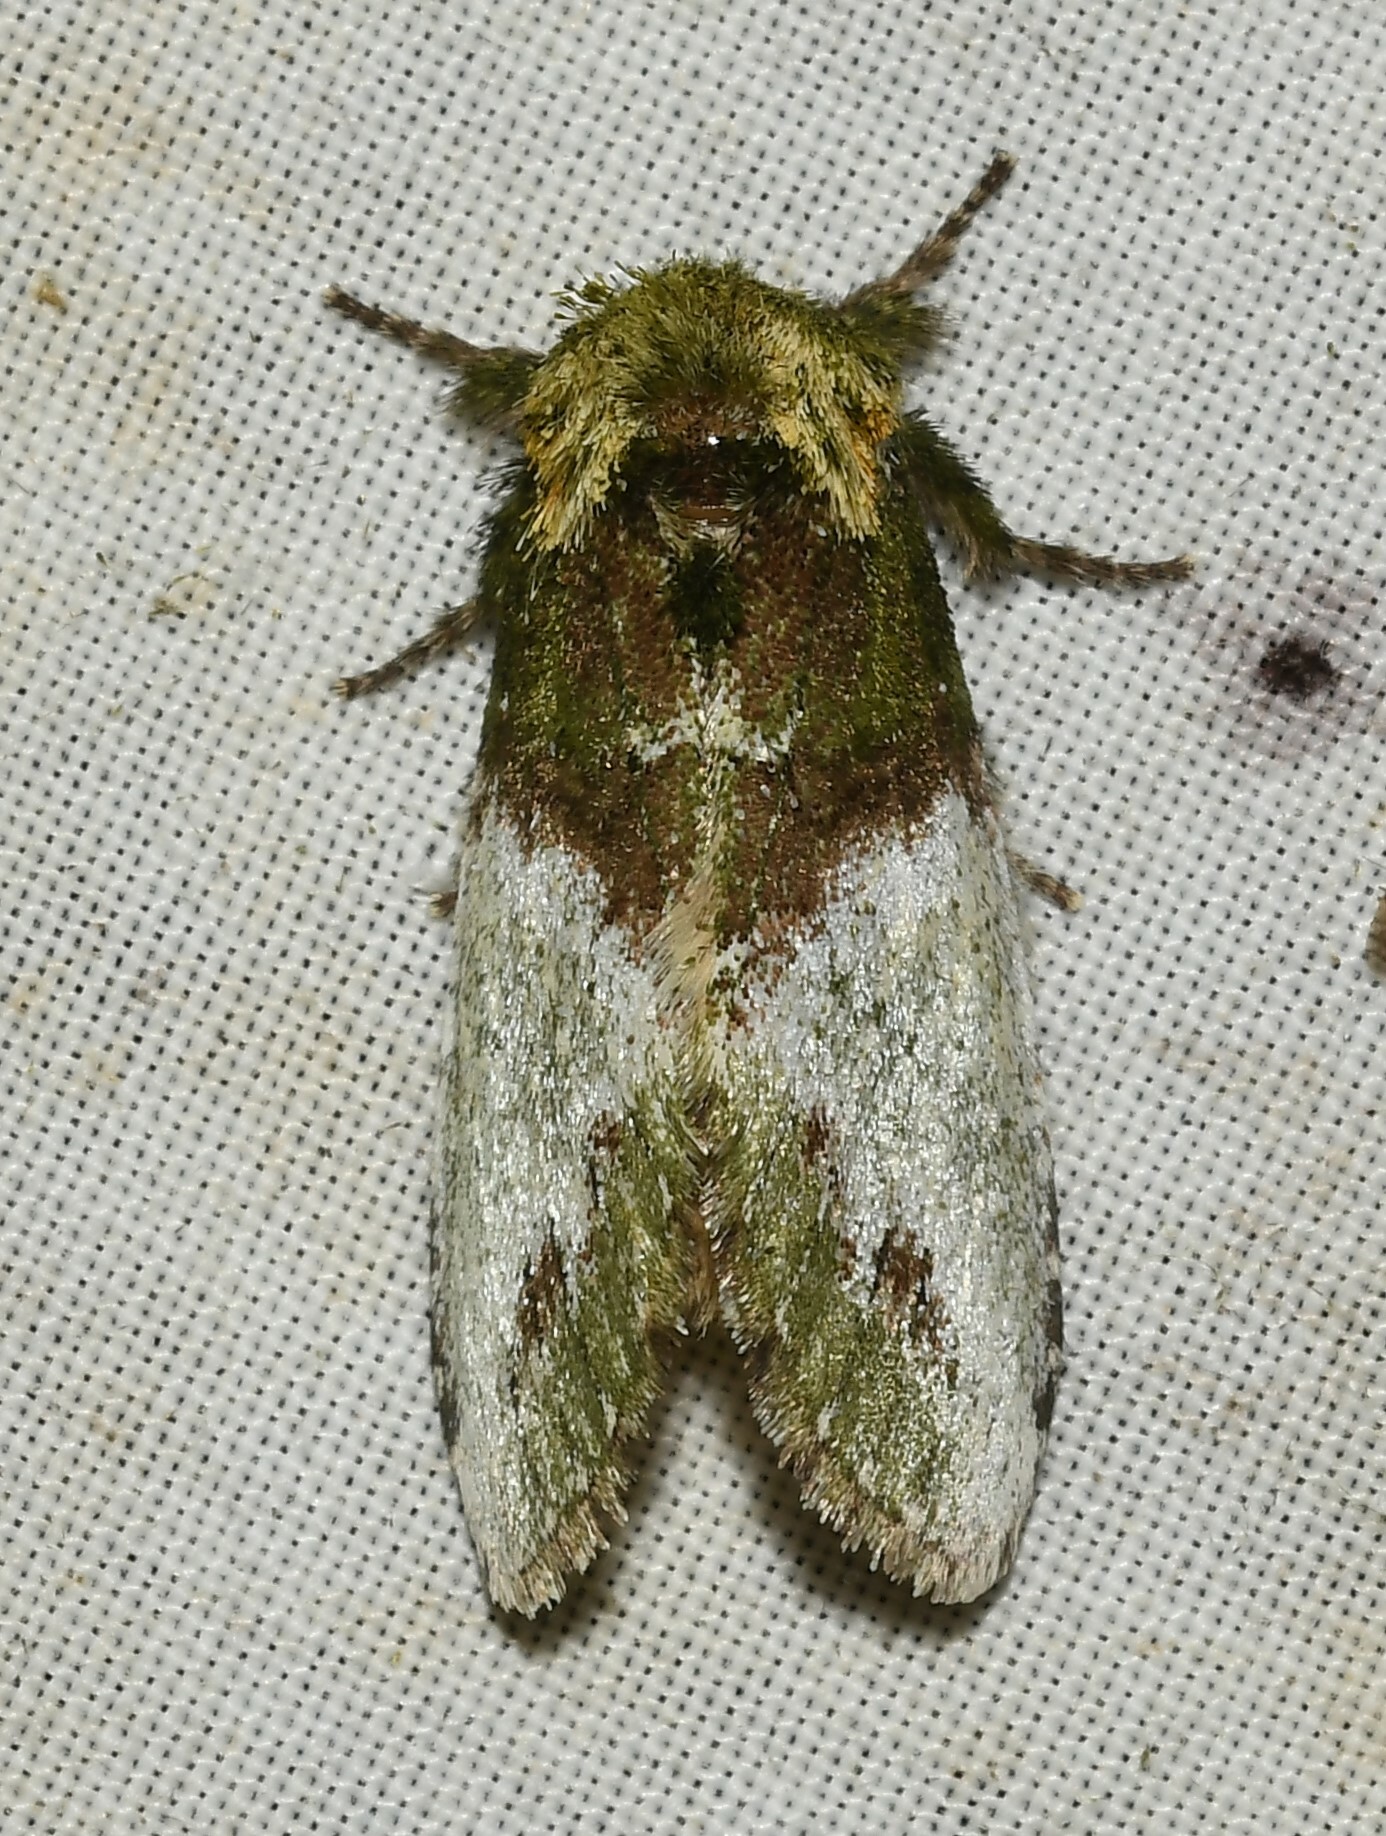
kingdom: Animalia
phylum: Arthropoda
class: Insecta
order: Lepidoptera
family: Notodontidae
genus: Disphragis
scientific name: Disphragis manethusa
